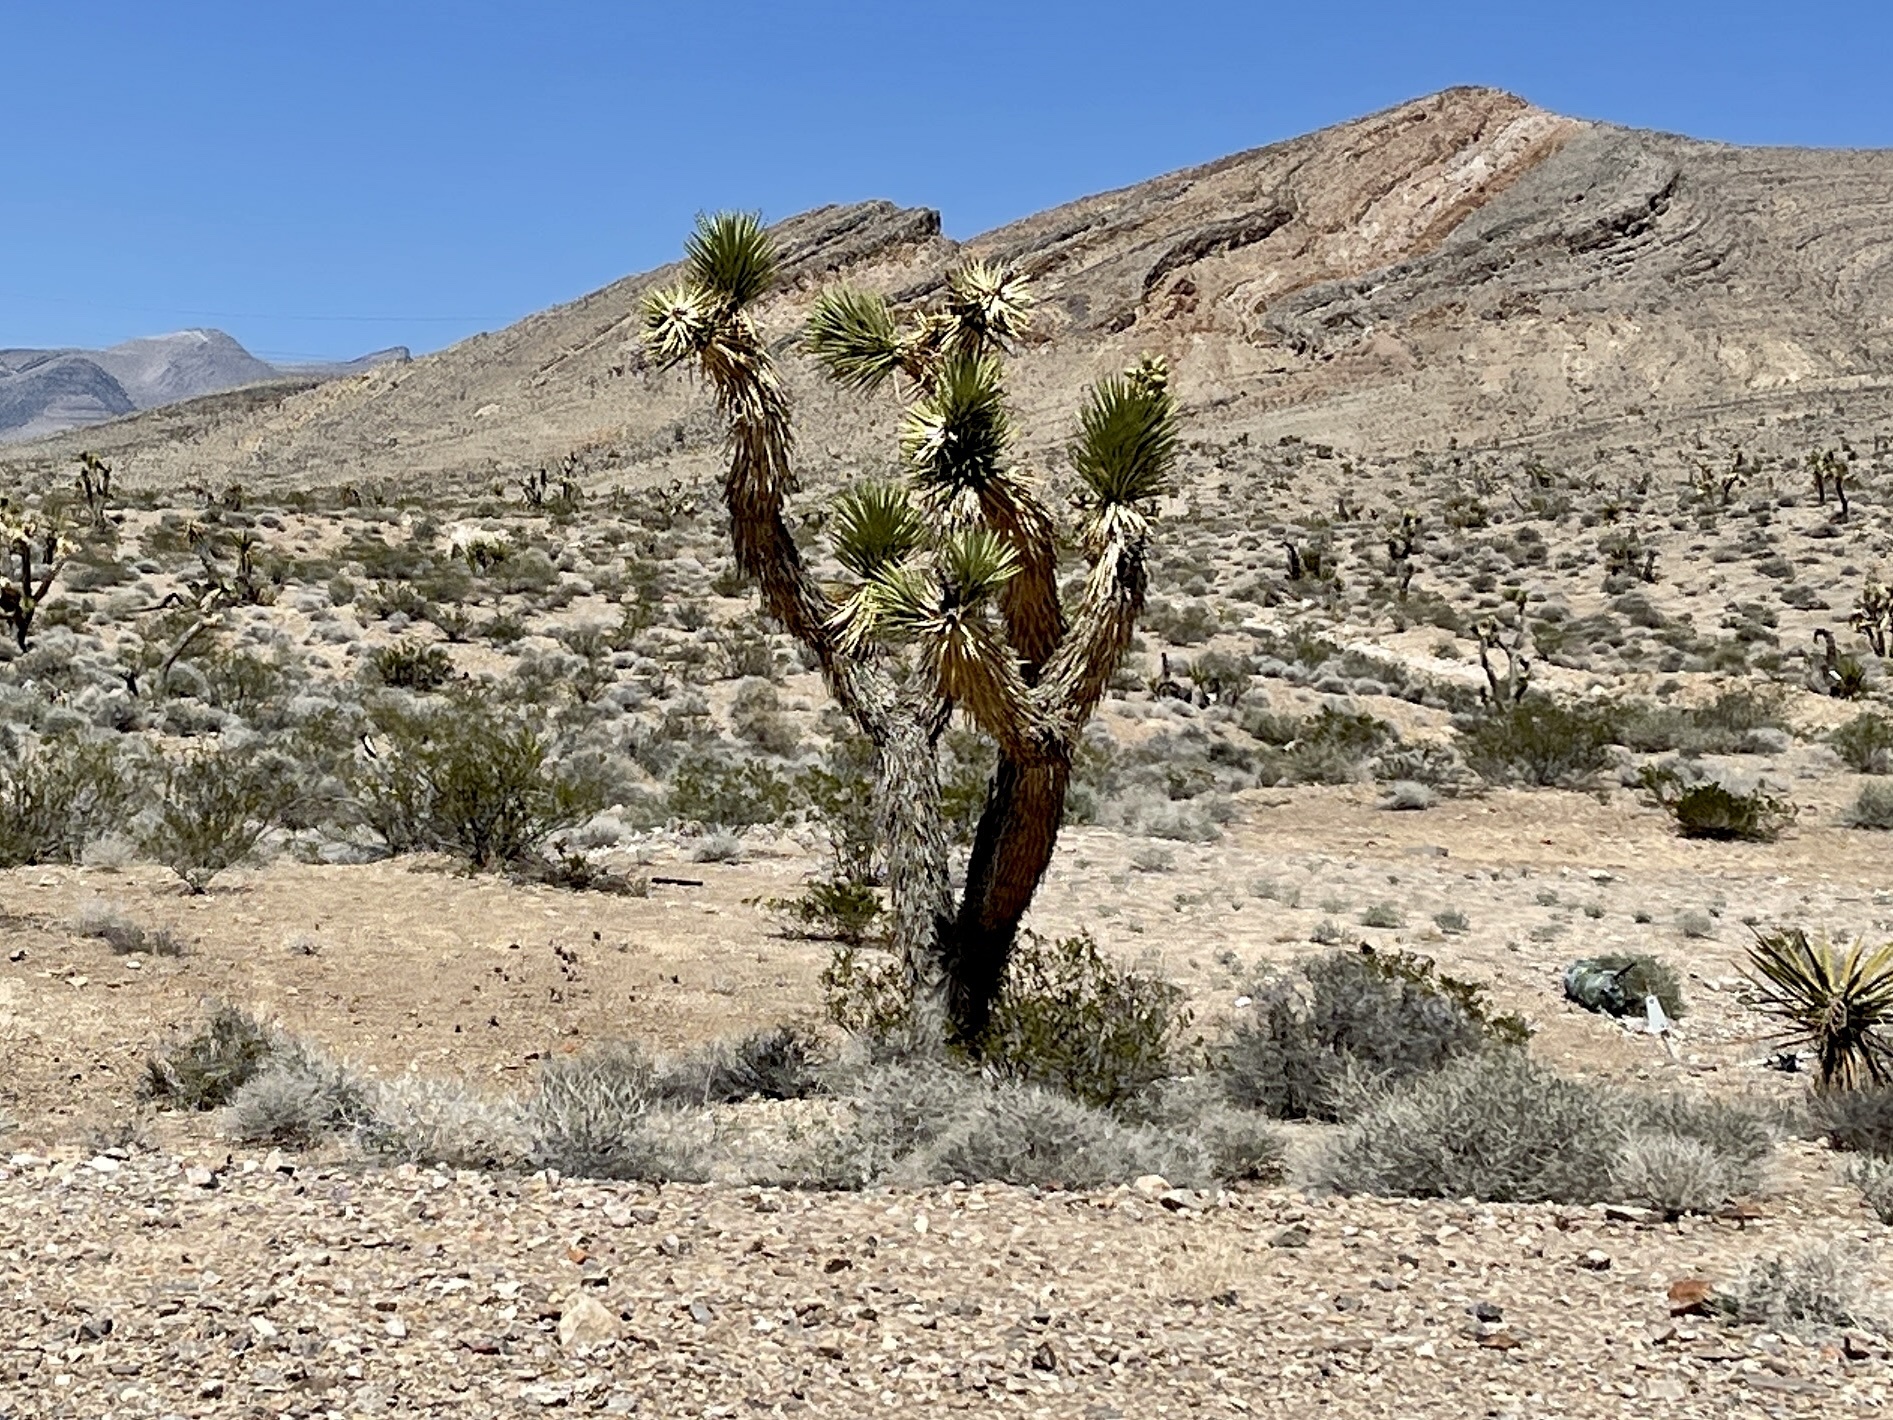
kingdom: Plantae
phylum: Tracheophyta
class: Liliopsida
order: Asparagales
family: Asparagaceae
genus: Yucca
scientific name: Yucca brevifolia
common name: Joshua tree
